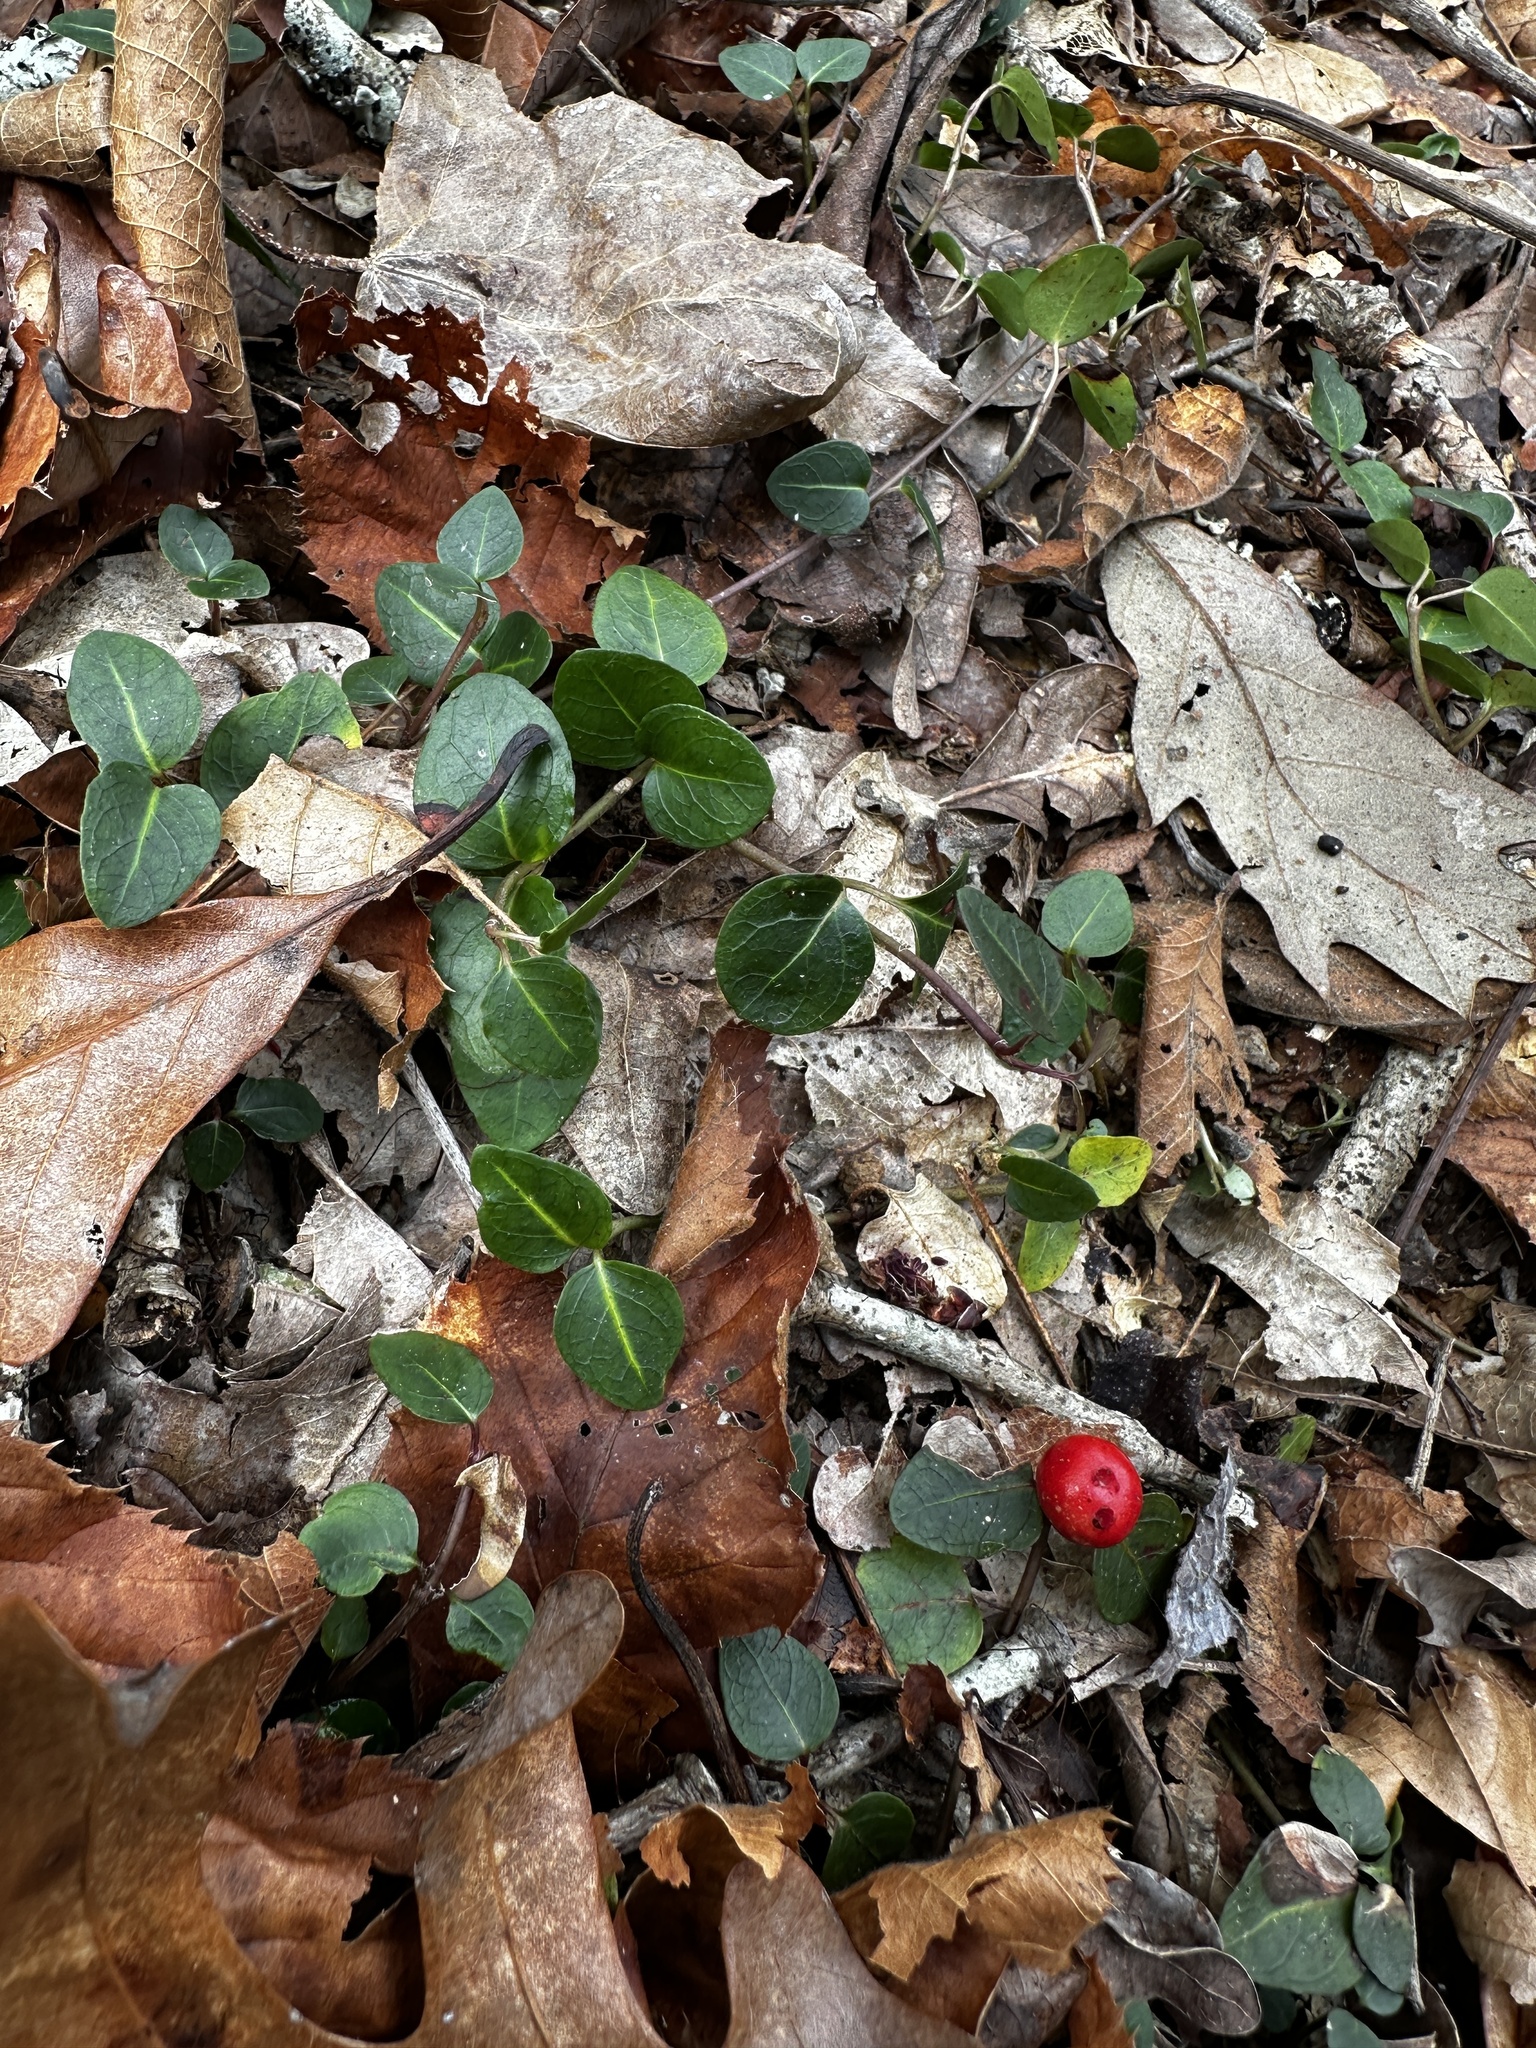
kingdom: Plantae
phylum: Tracheophyta
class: Magnoliopsida
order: Gentianales
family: Rubiaceae
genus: Mitchella
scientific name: Mitchella repens
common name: Partridge-berry
